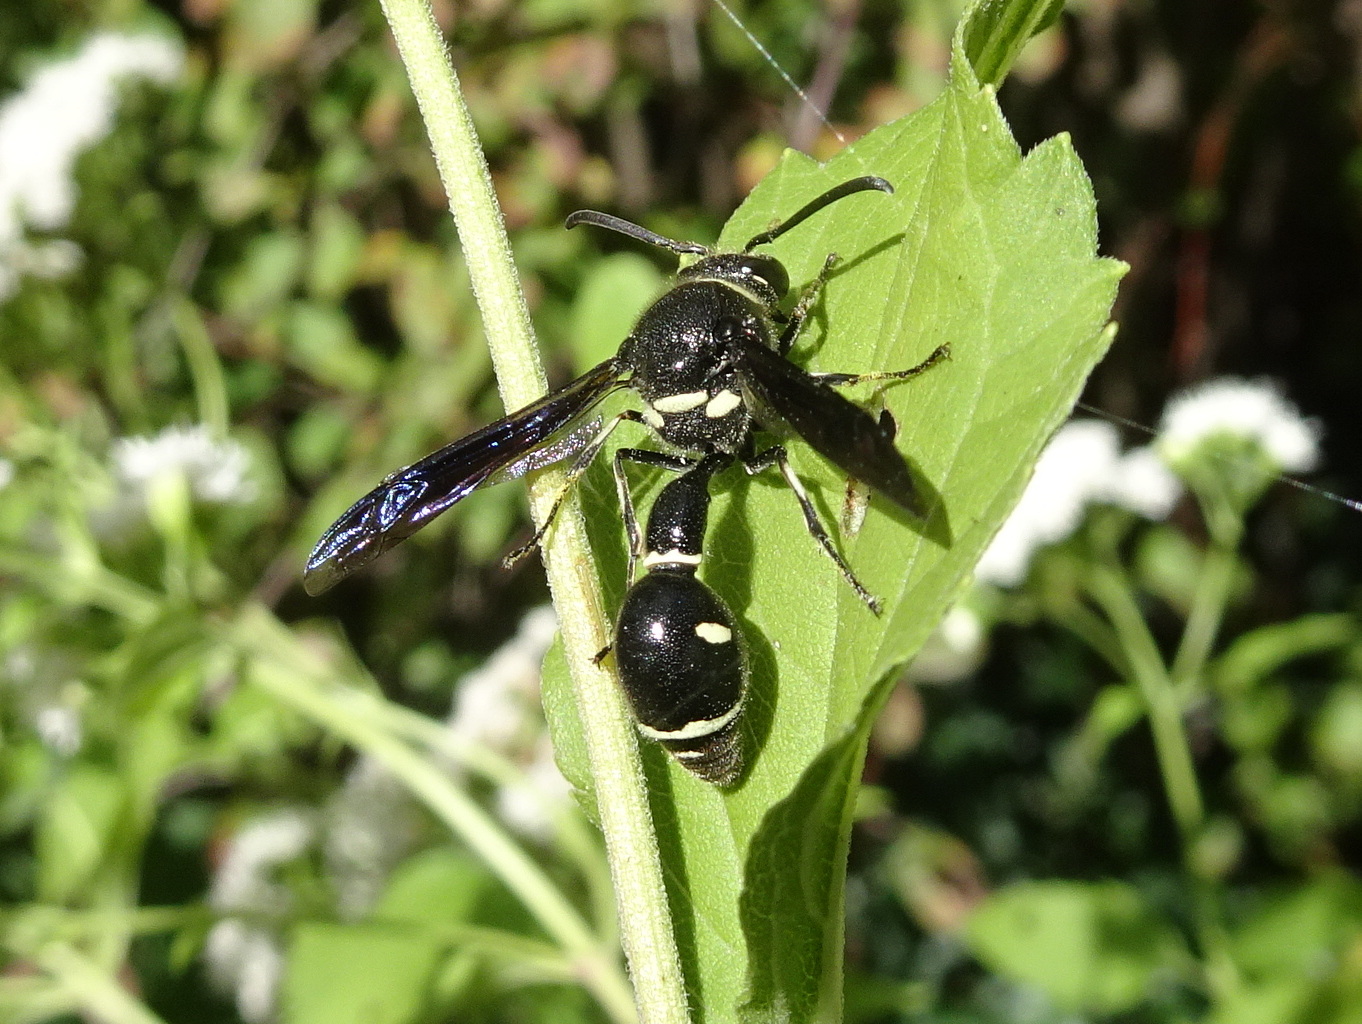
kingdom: Animalia
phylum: Arthropoda
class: Insecta
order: Hymenoptera
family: Vespidae
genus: Eumenes
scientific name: Eumenes fraternus
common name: Fraternal potter wasp
